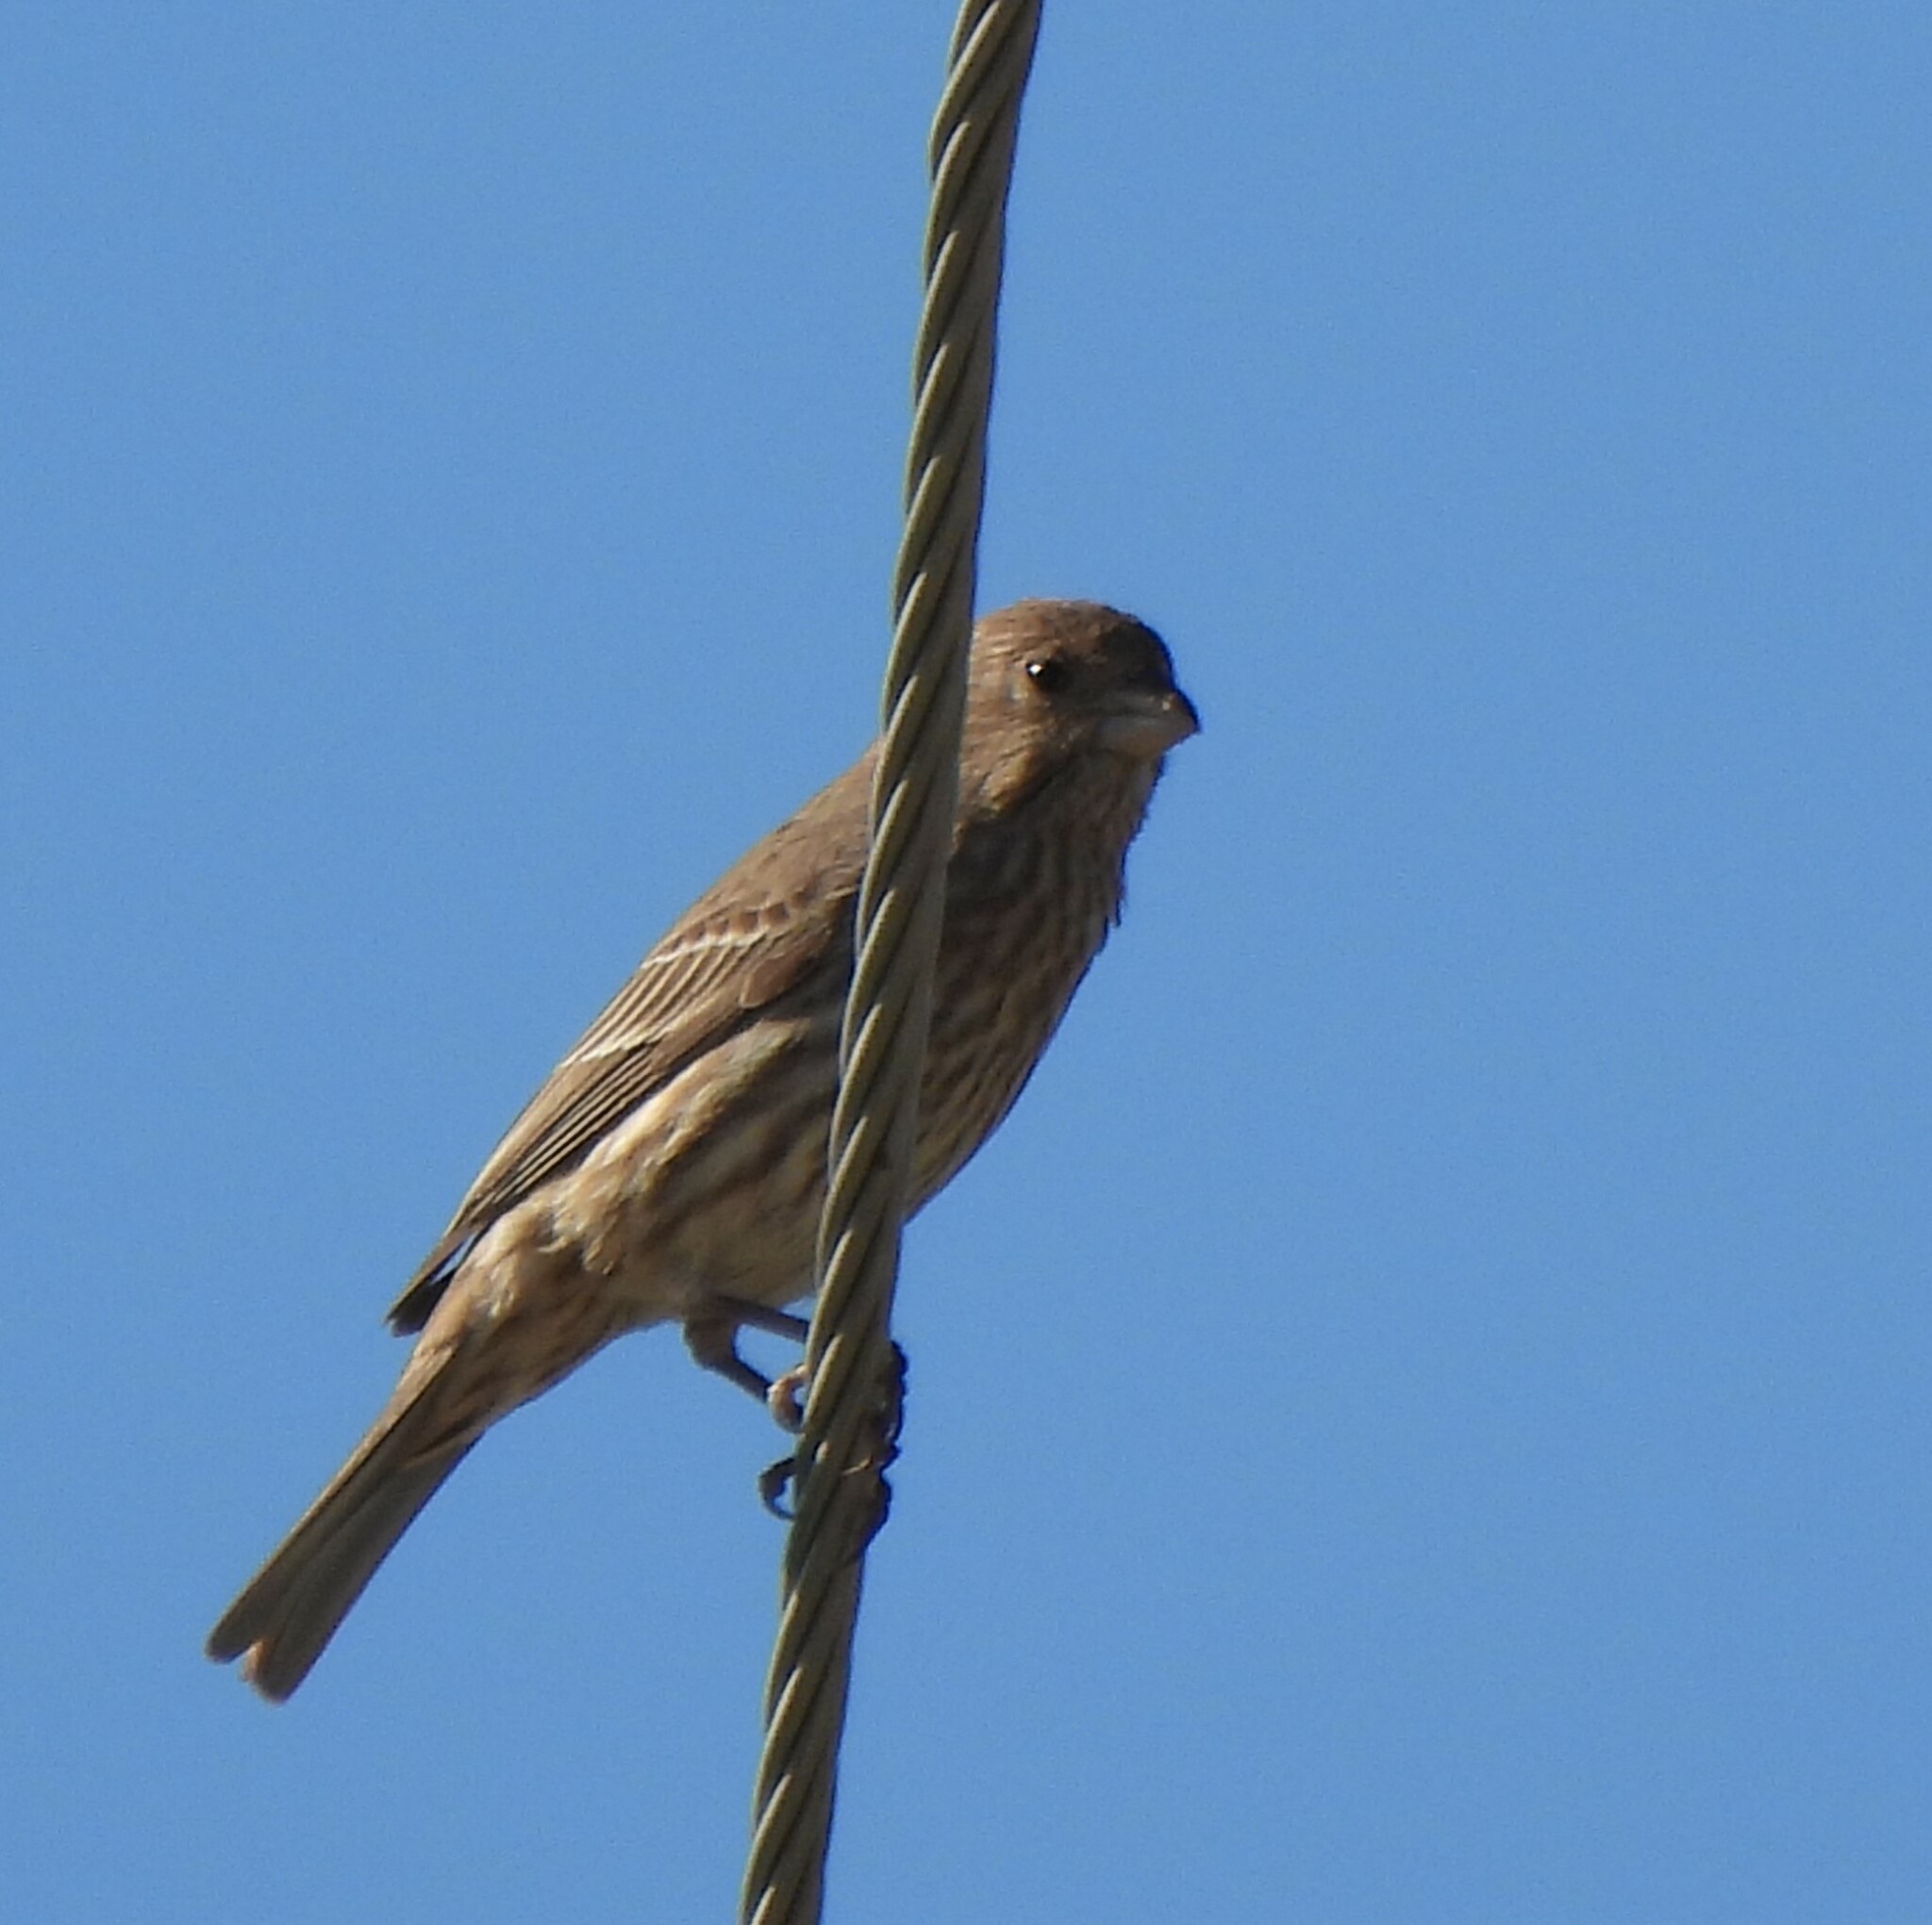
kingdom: Animalia
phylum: Chordata
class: Aves
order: Passeriformes
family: Fringillidae
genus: Haemorhous
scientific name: Haemorhous mexicanus
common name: House finch
